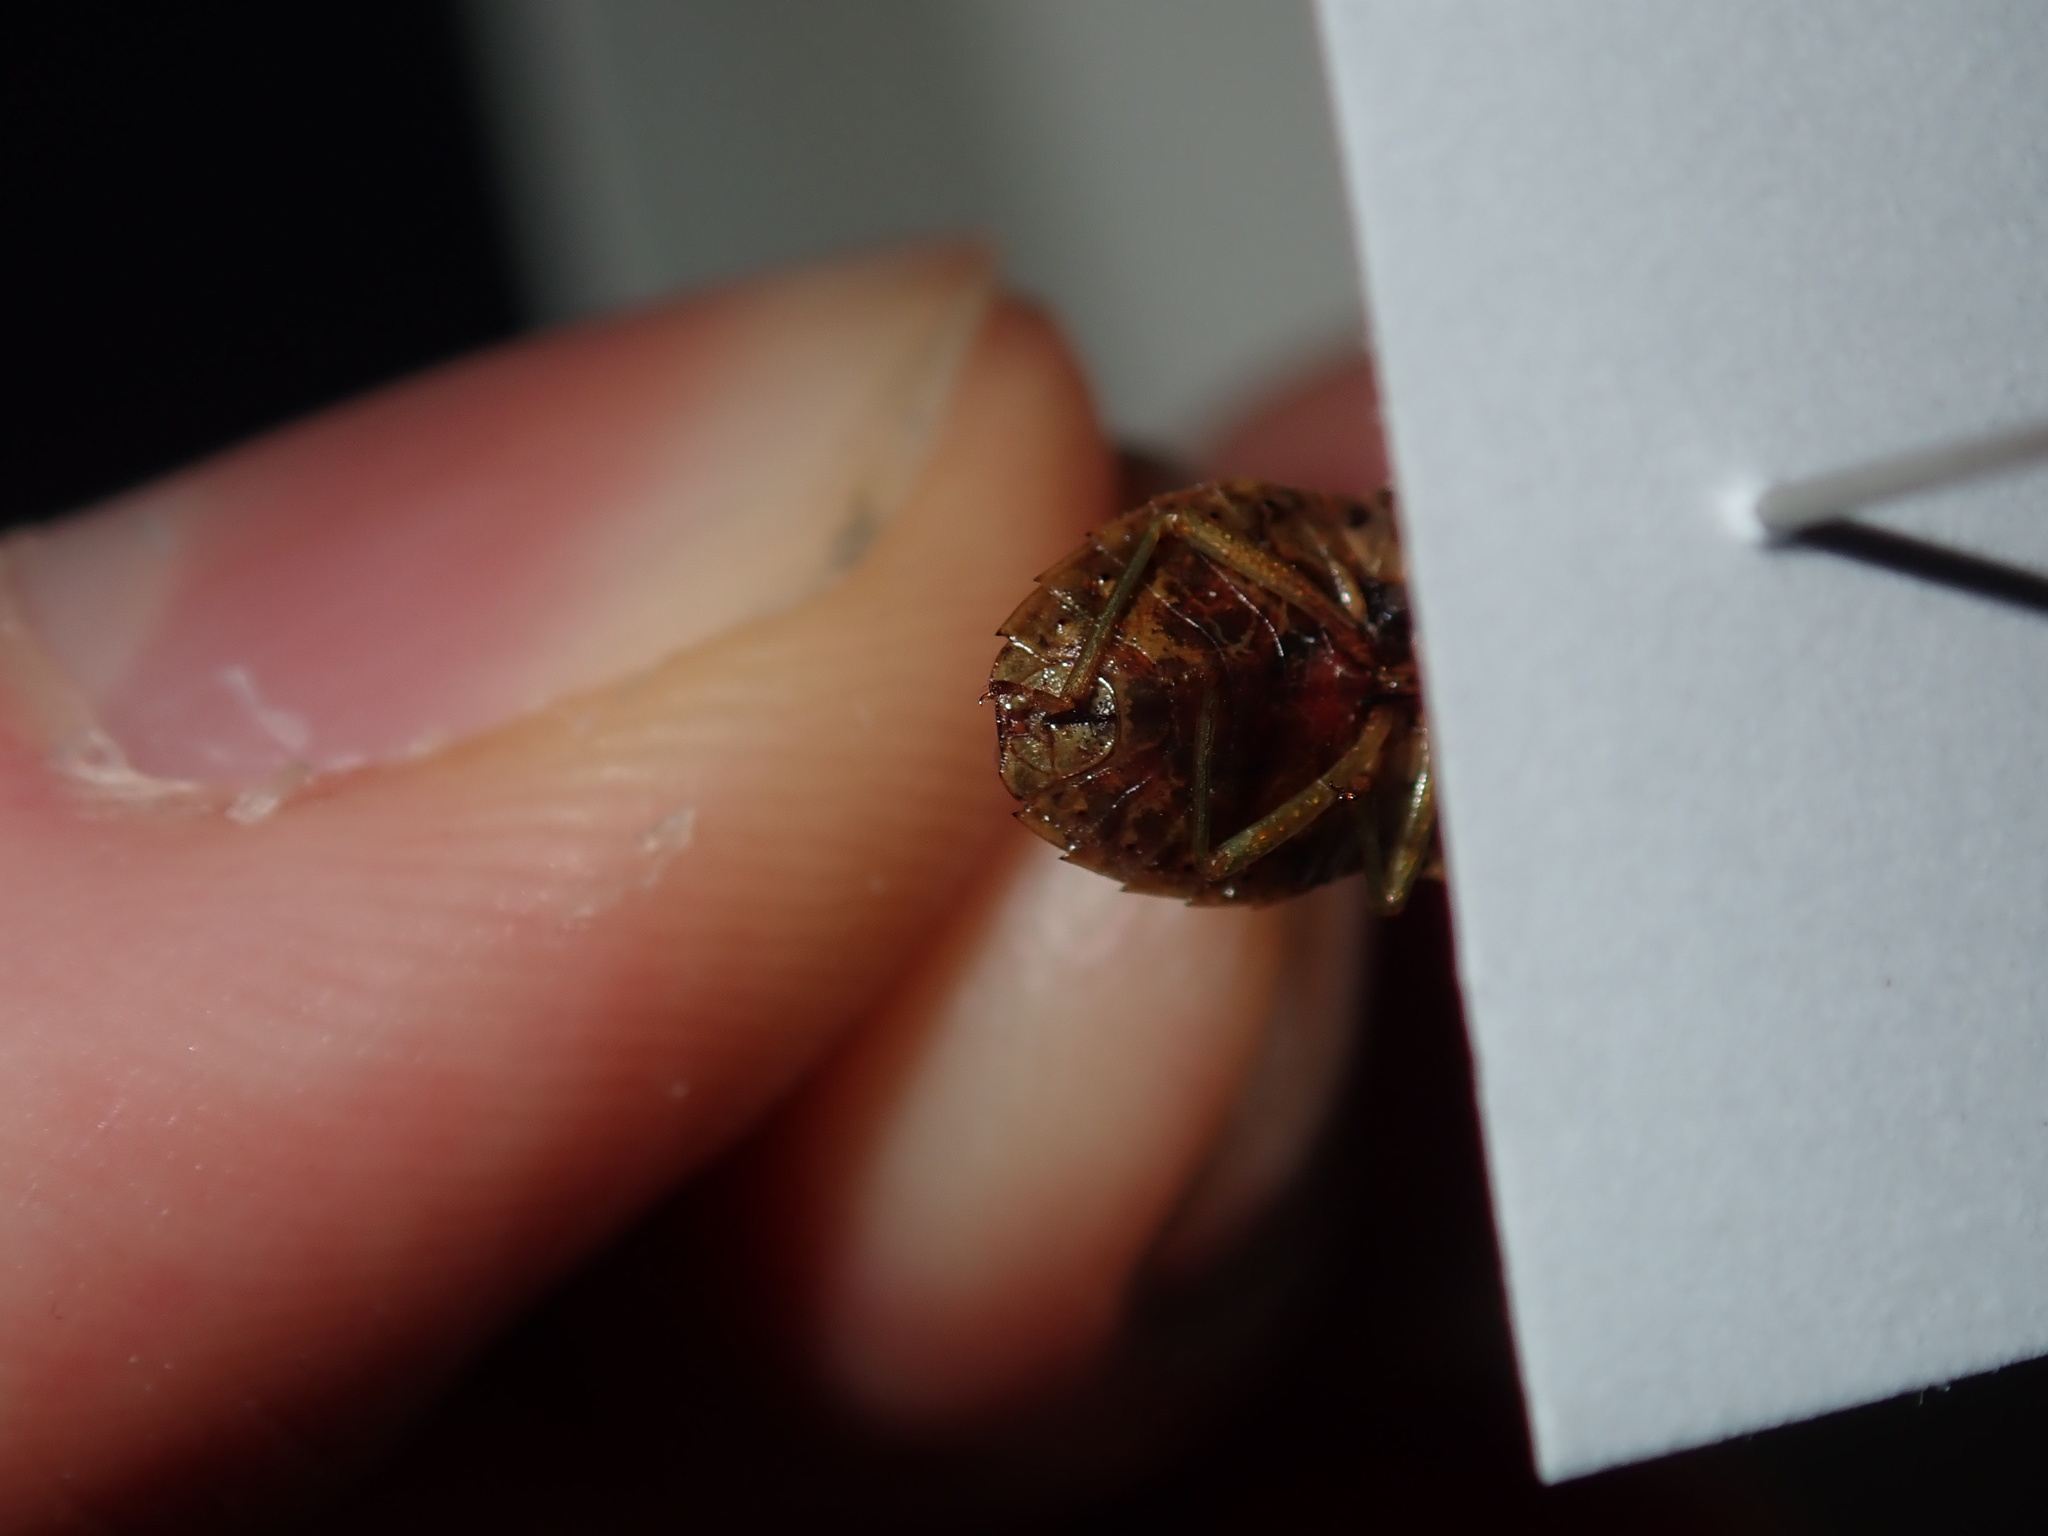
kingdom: Animalia
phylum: Arthropoda
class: Insecta
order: Hemiptera
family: Pentatomidae
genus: Ocirrhoe
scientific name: Ocirrhoe
